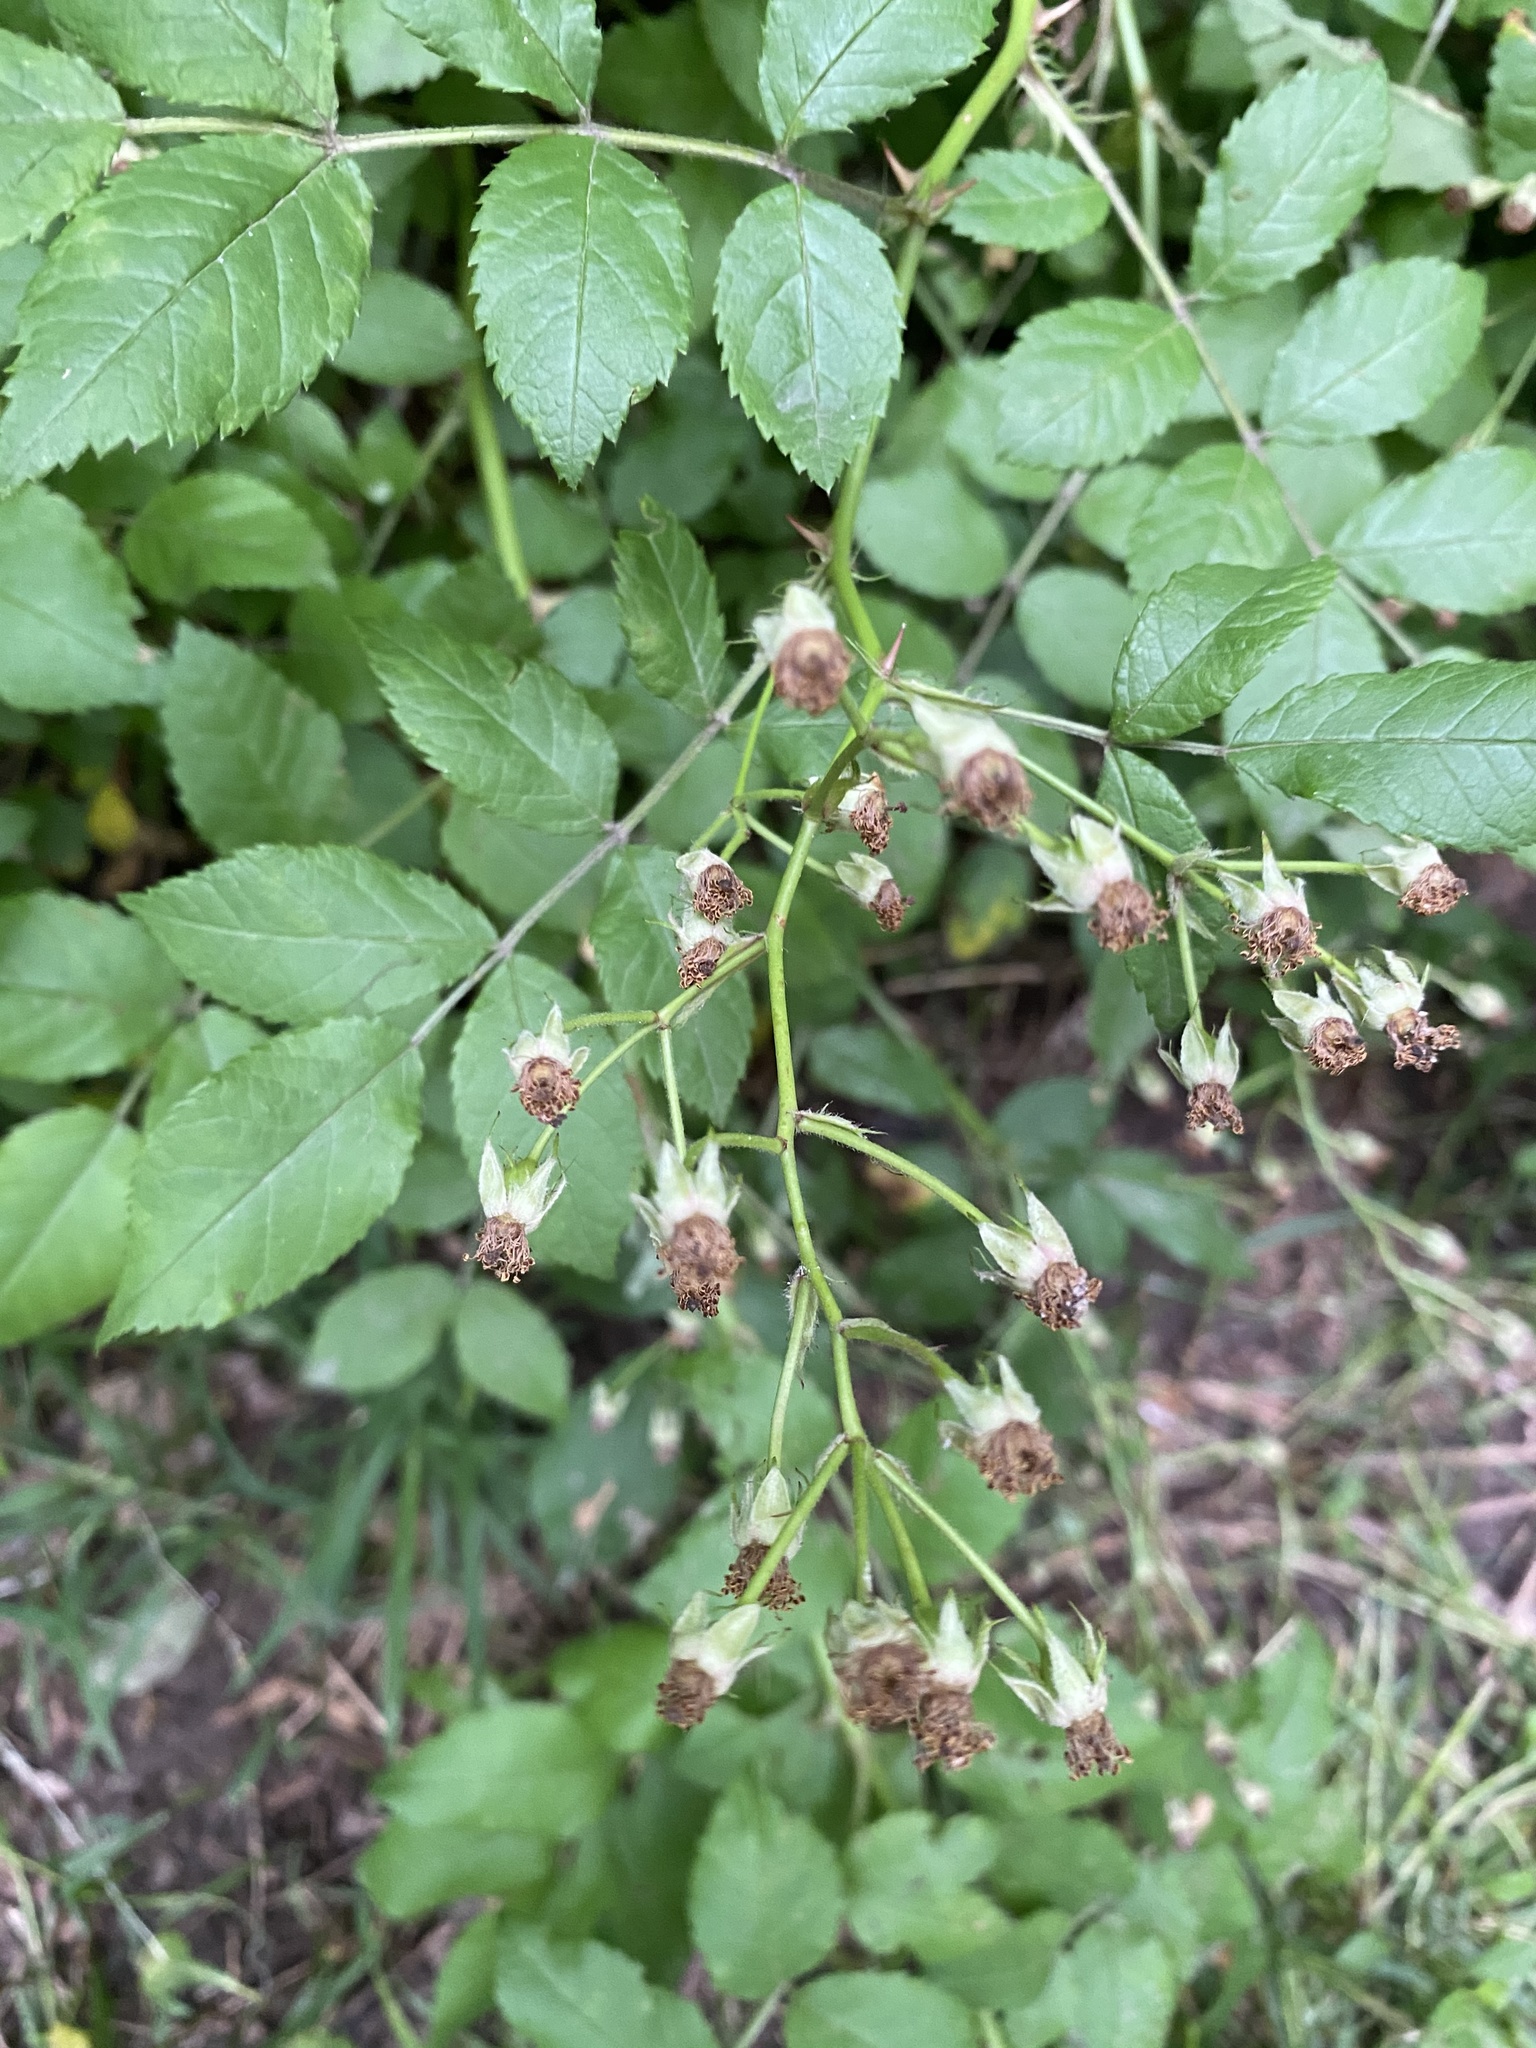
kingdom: Plantae
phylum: Tracheophyta
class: Magnoliopsida
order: Rosales
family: Rosaceae
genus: Rosa
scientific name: Rosa multiflora
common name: Multiflora rose
